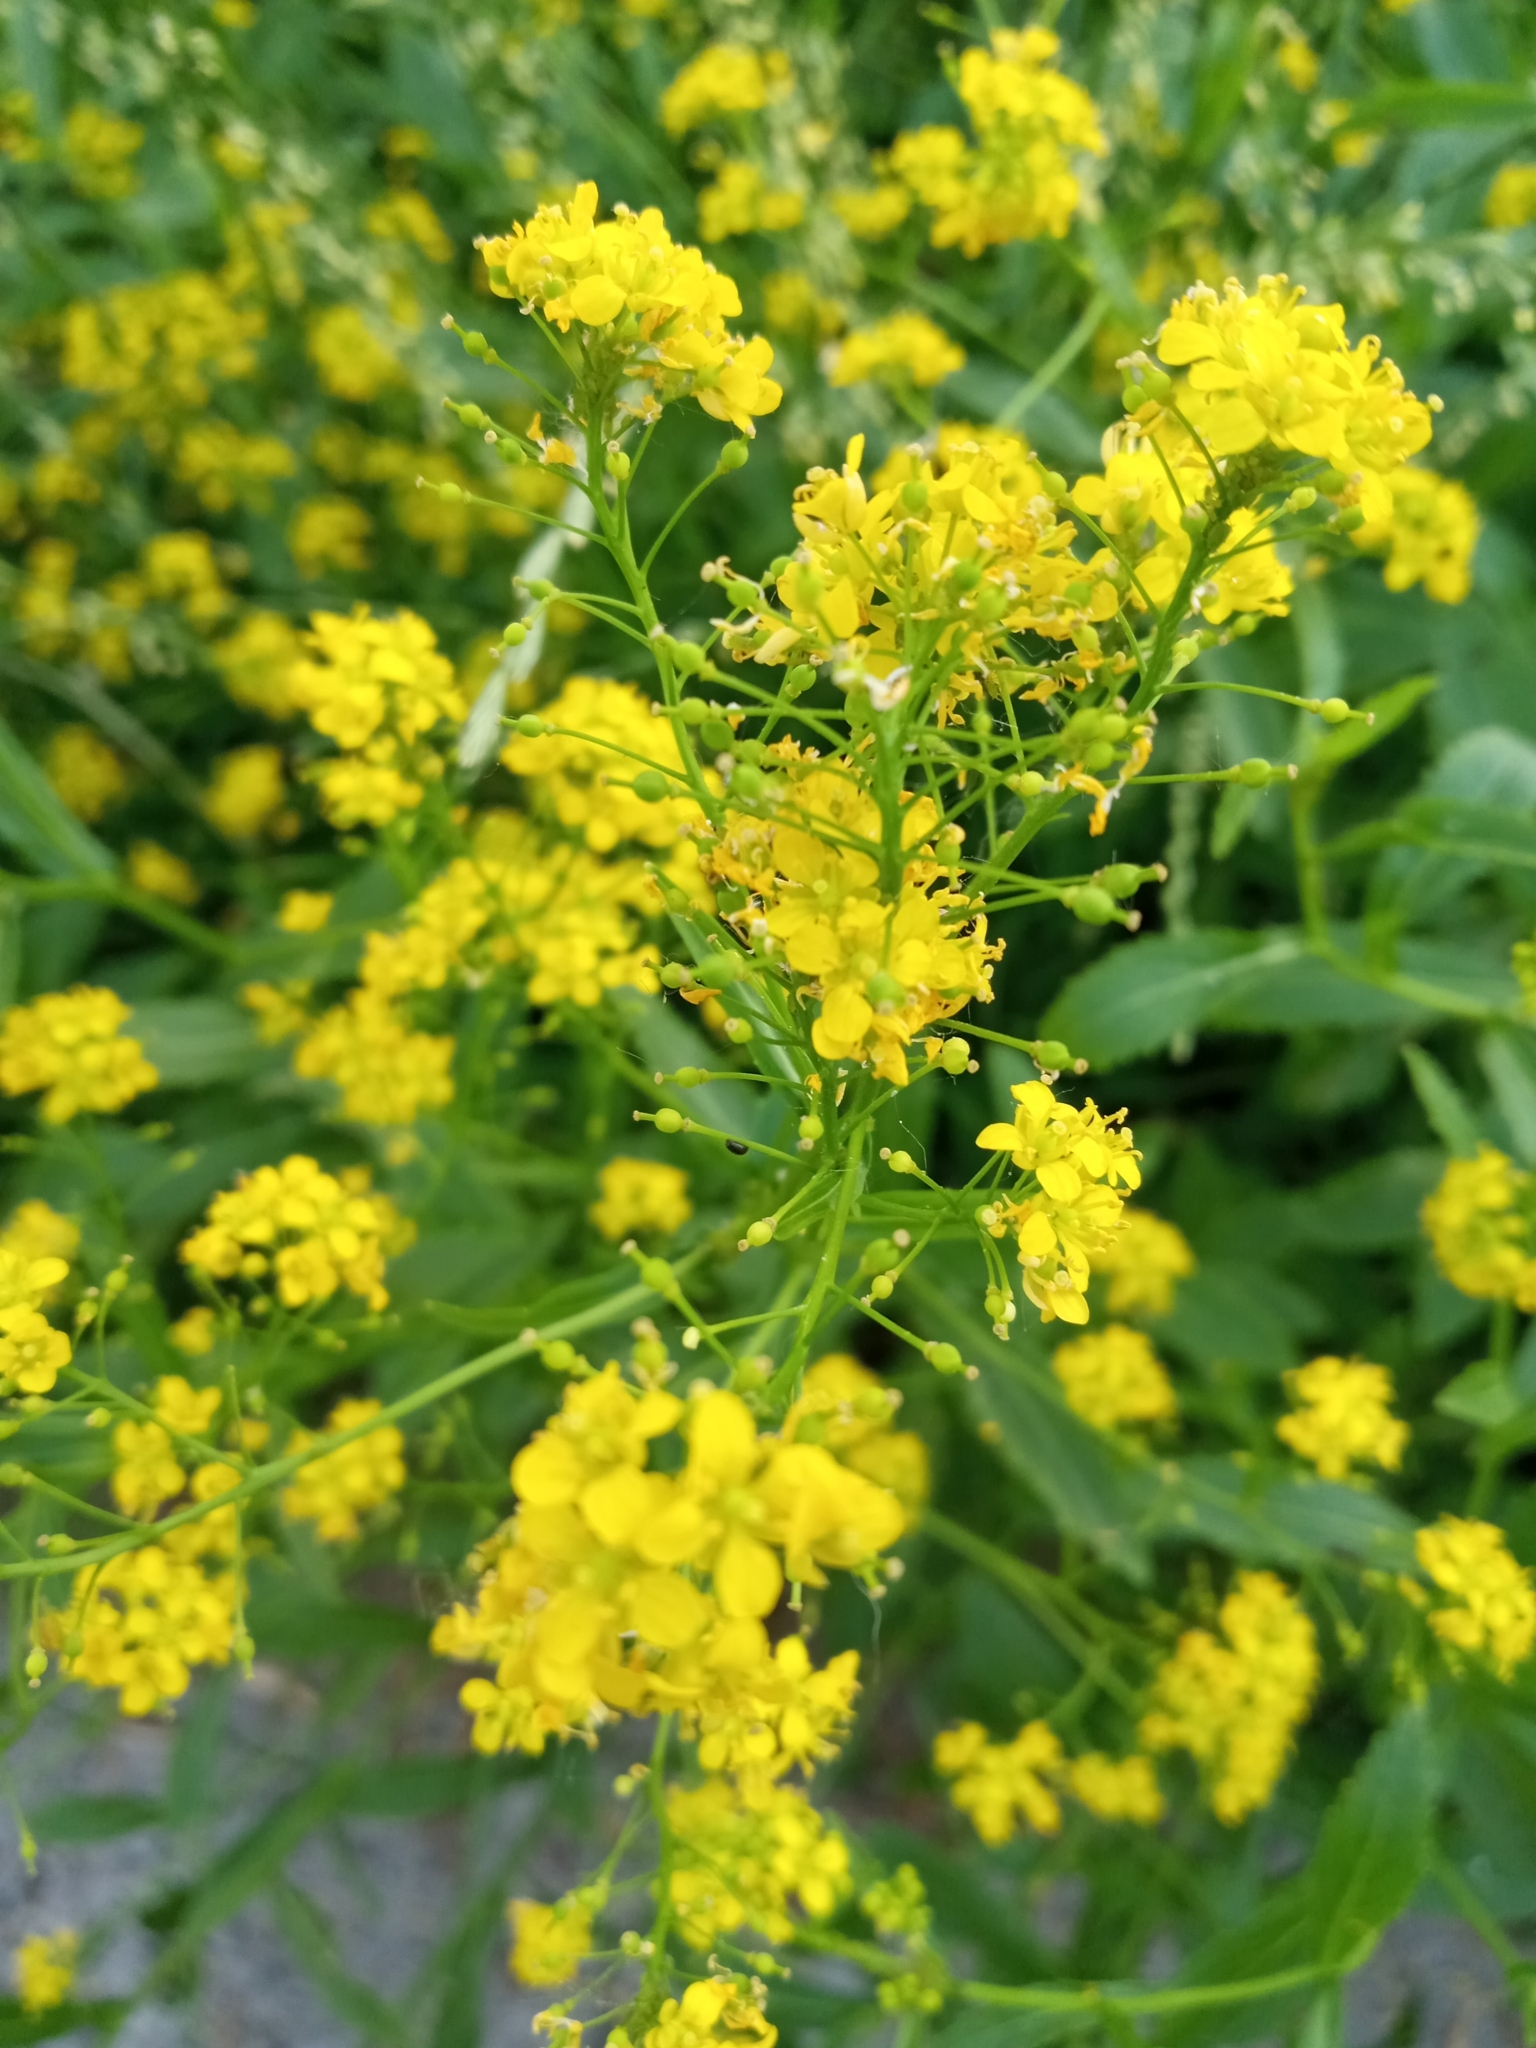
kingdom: Plantae
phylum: Tracheophyta
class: Magnoliopsida
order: Brassicales
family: Brassicaceae
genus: Rorippa
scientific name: Rorippa austriaca
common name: Austrian yellow-cress
